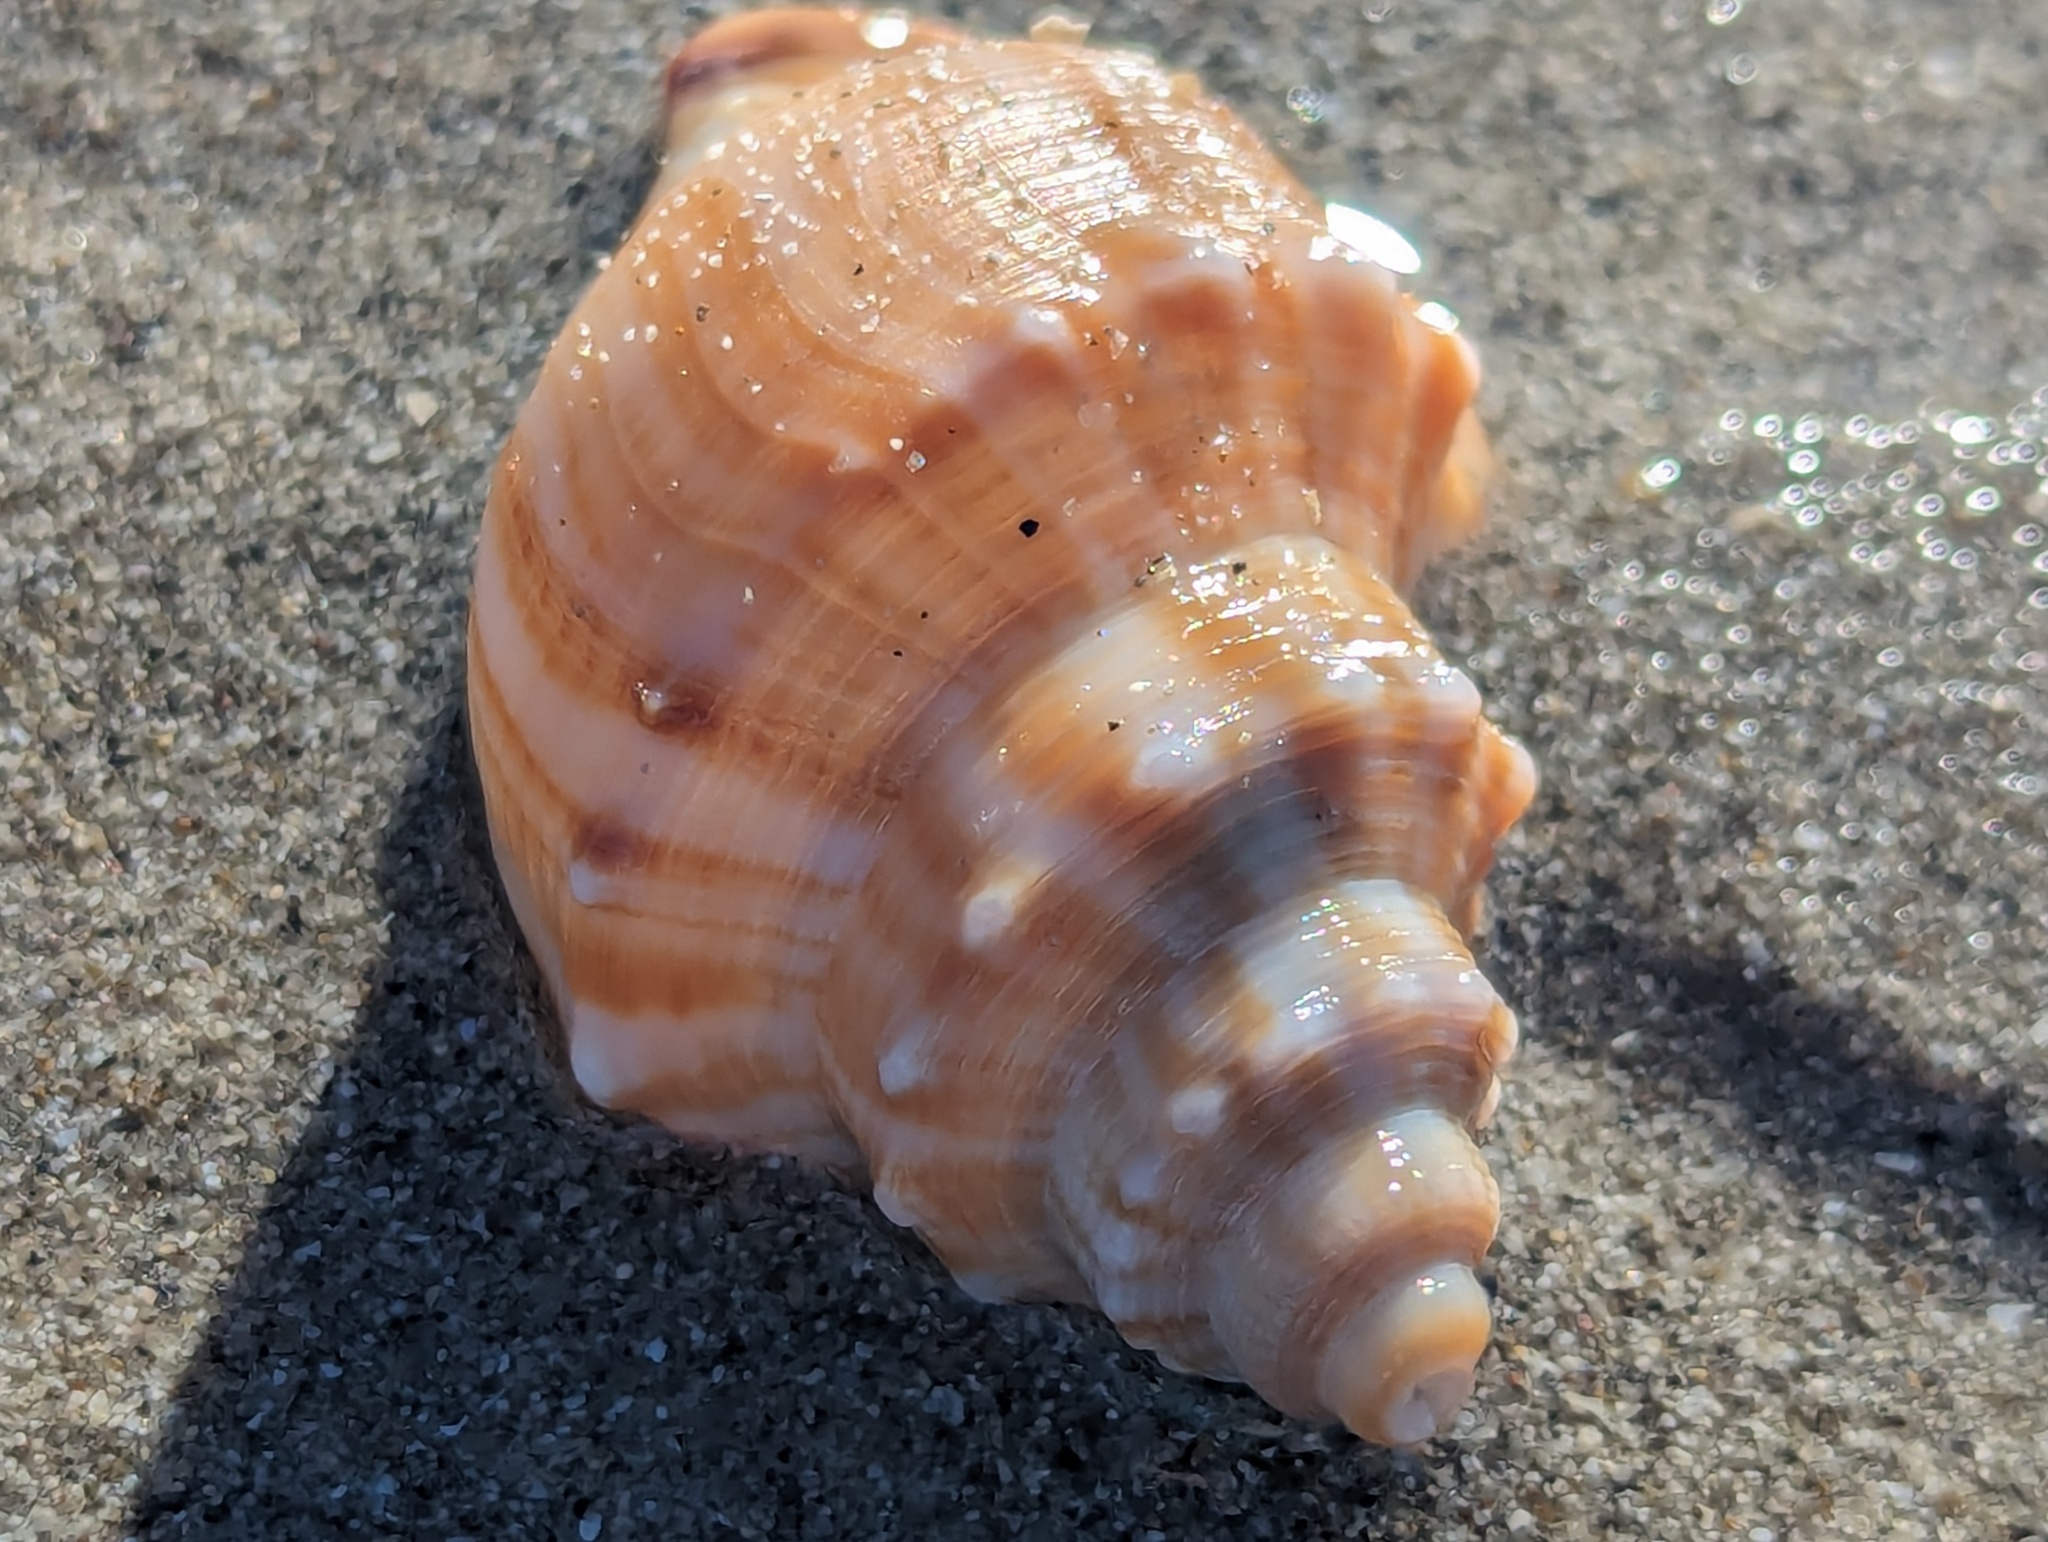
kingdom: Animalia
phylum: Mollusca
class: Gastropoda
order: Littorinimorpha
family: Struthiolariidae
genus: Struthiolaria
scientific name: Struthiolaria papulosa
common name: Large ostrich foot
